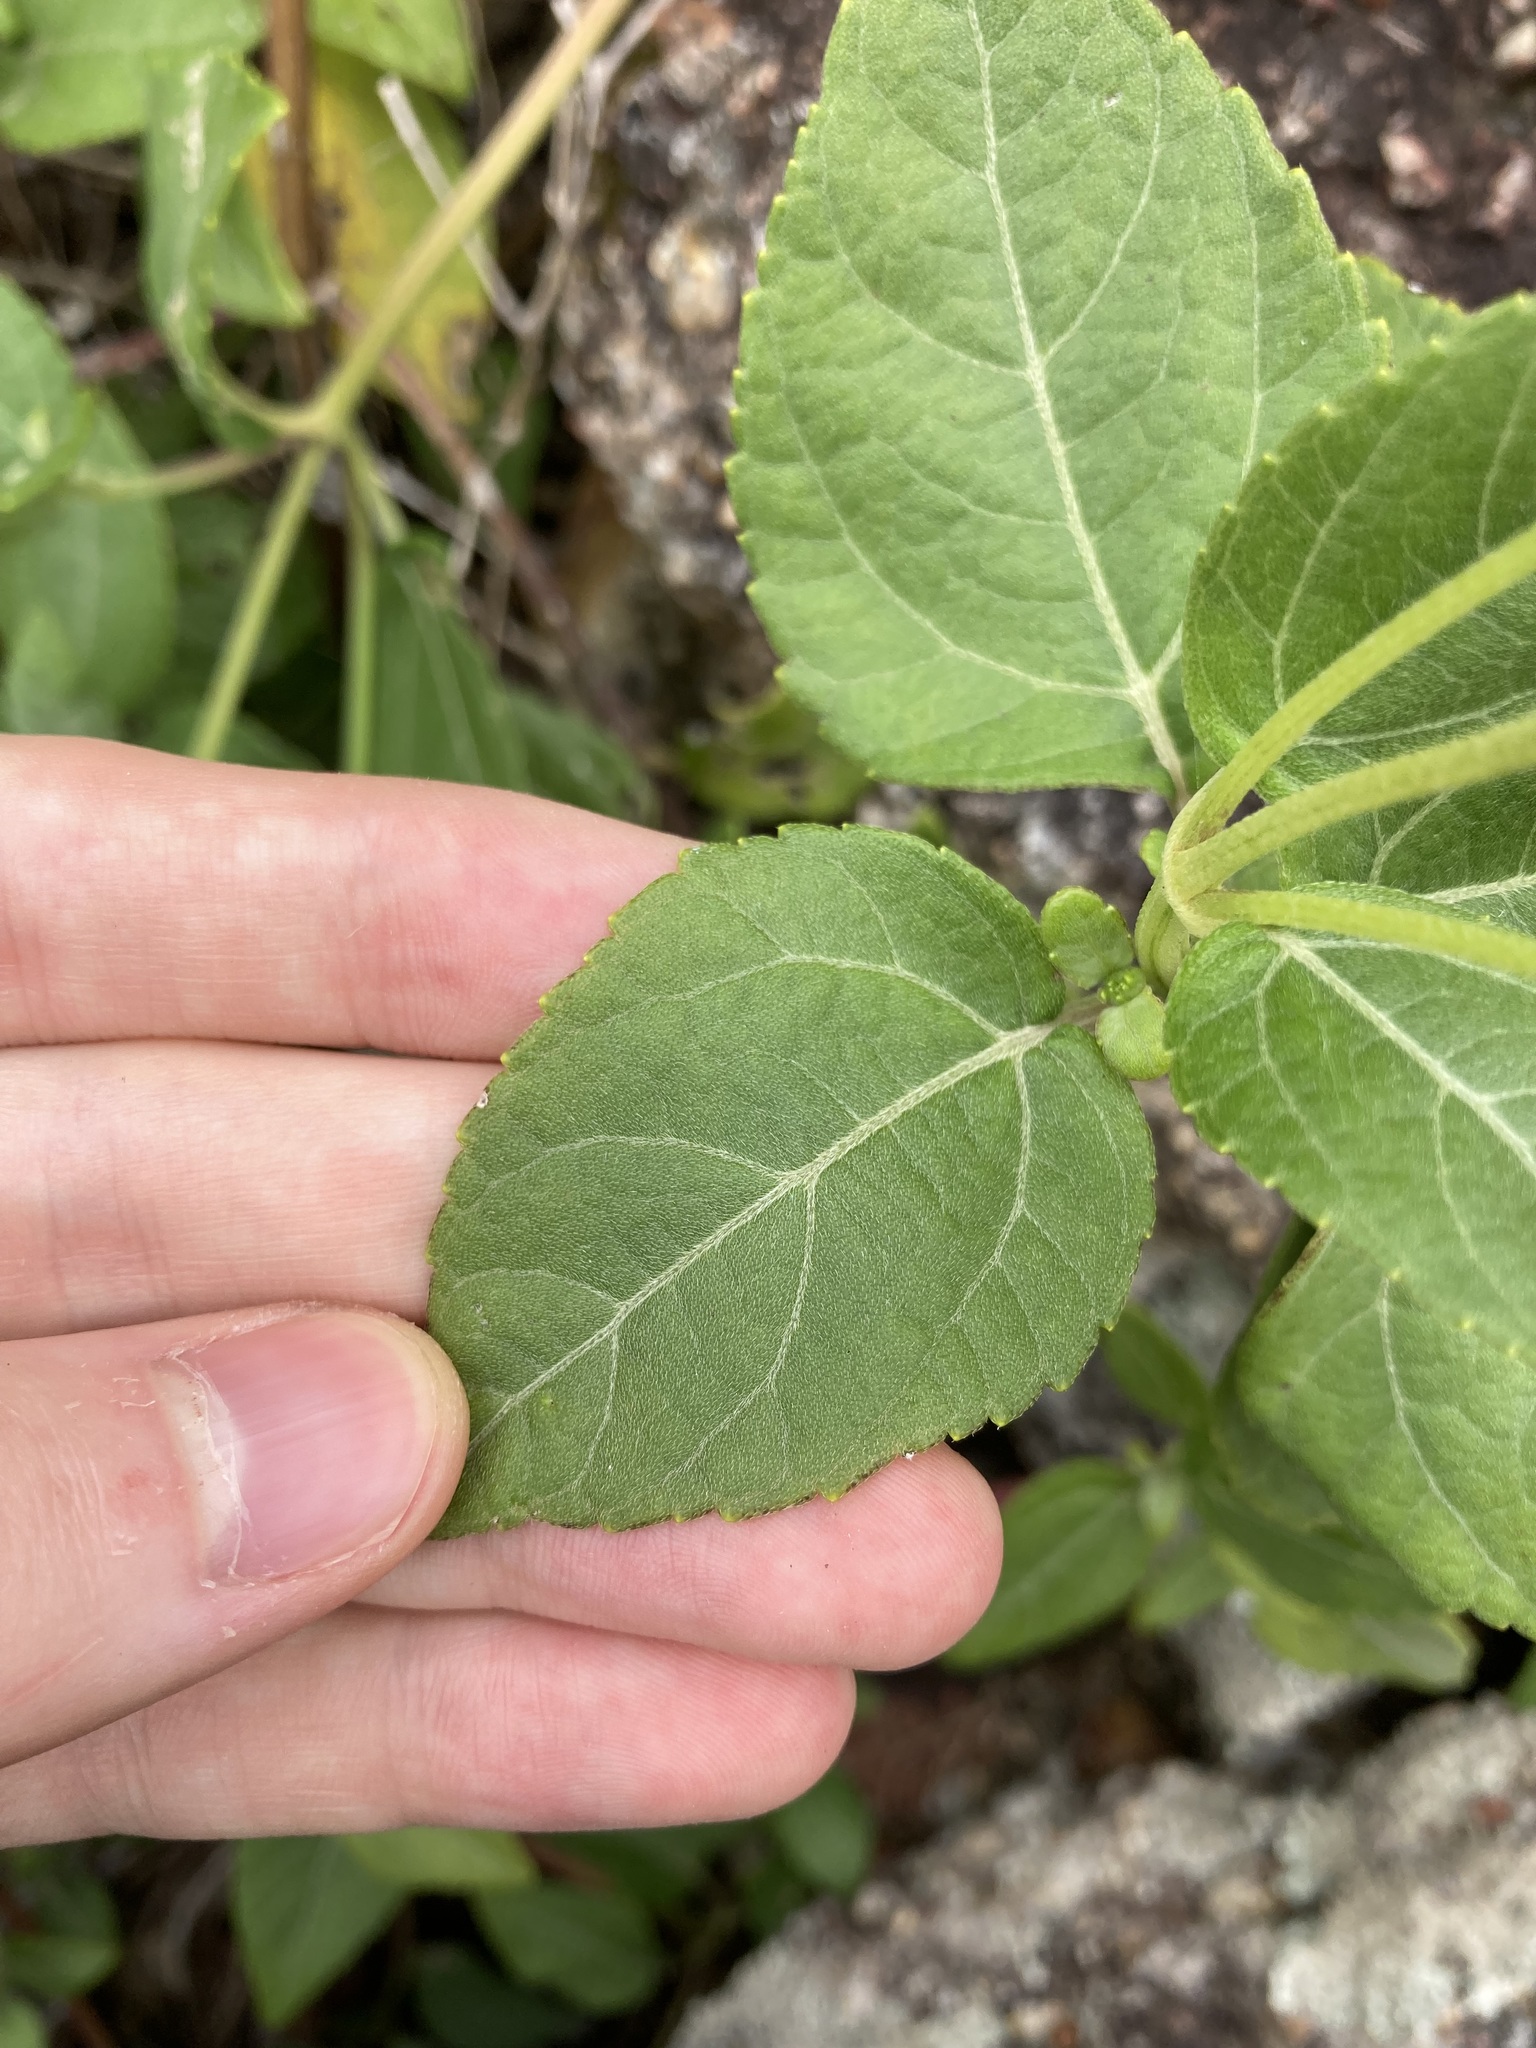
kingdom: Plantae
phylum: Tracheophyta
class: Magnoliopsida
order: Asterales
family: Asteraceae
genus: Wollastonia
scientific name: Wollastonia uniflora
